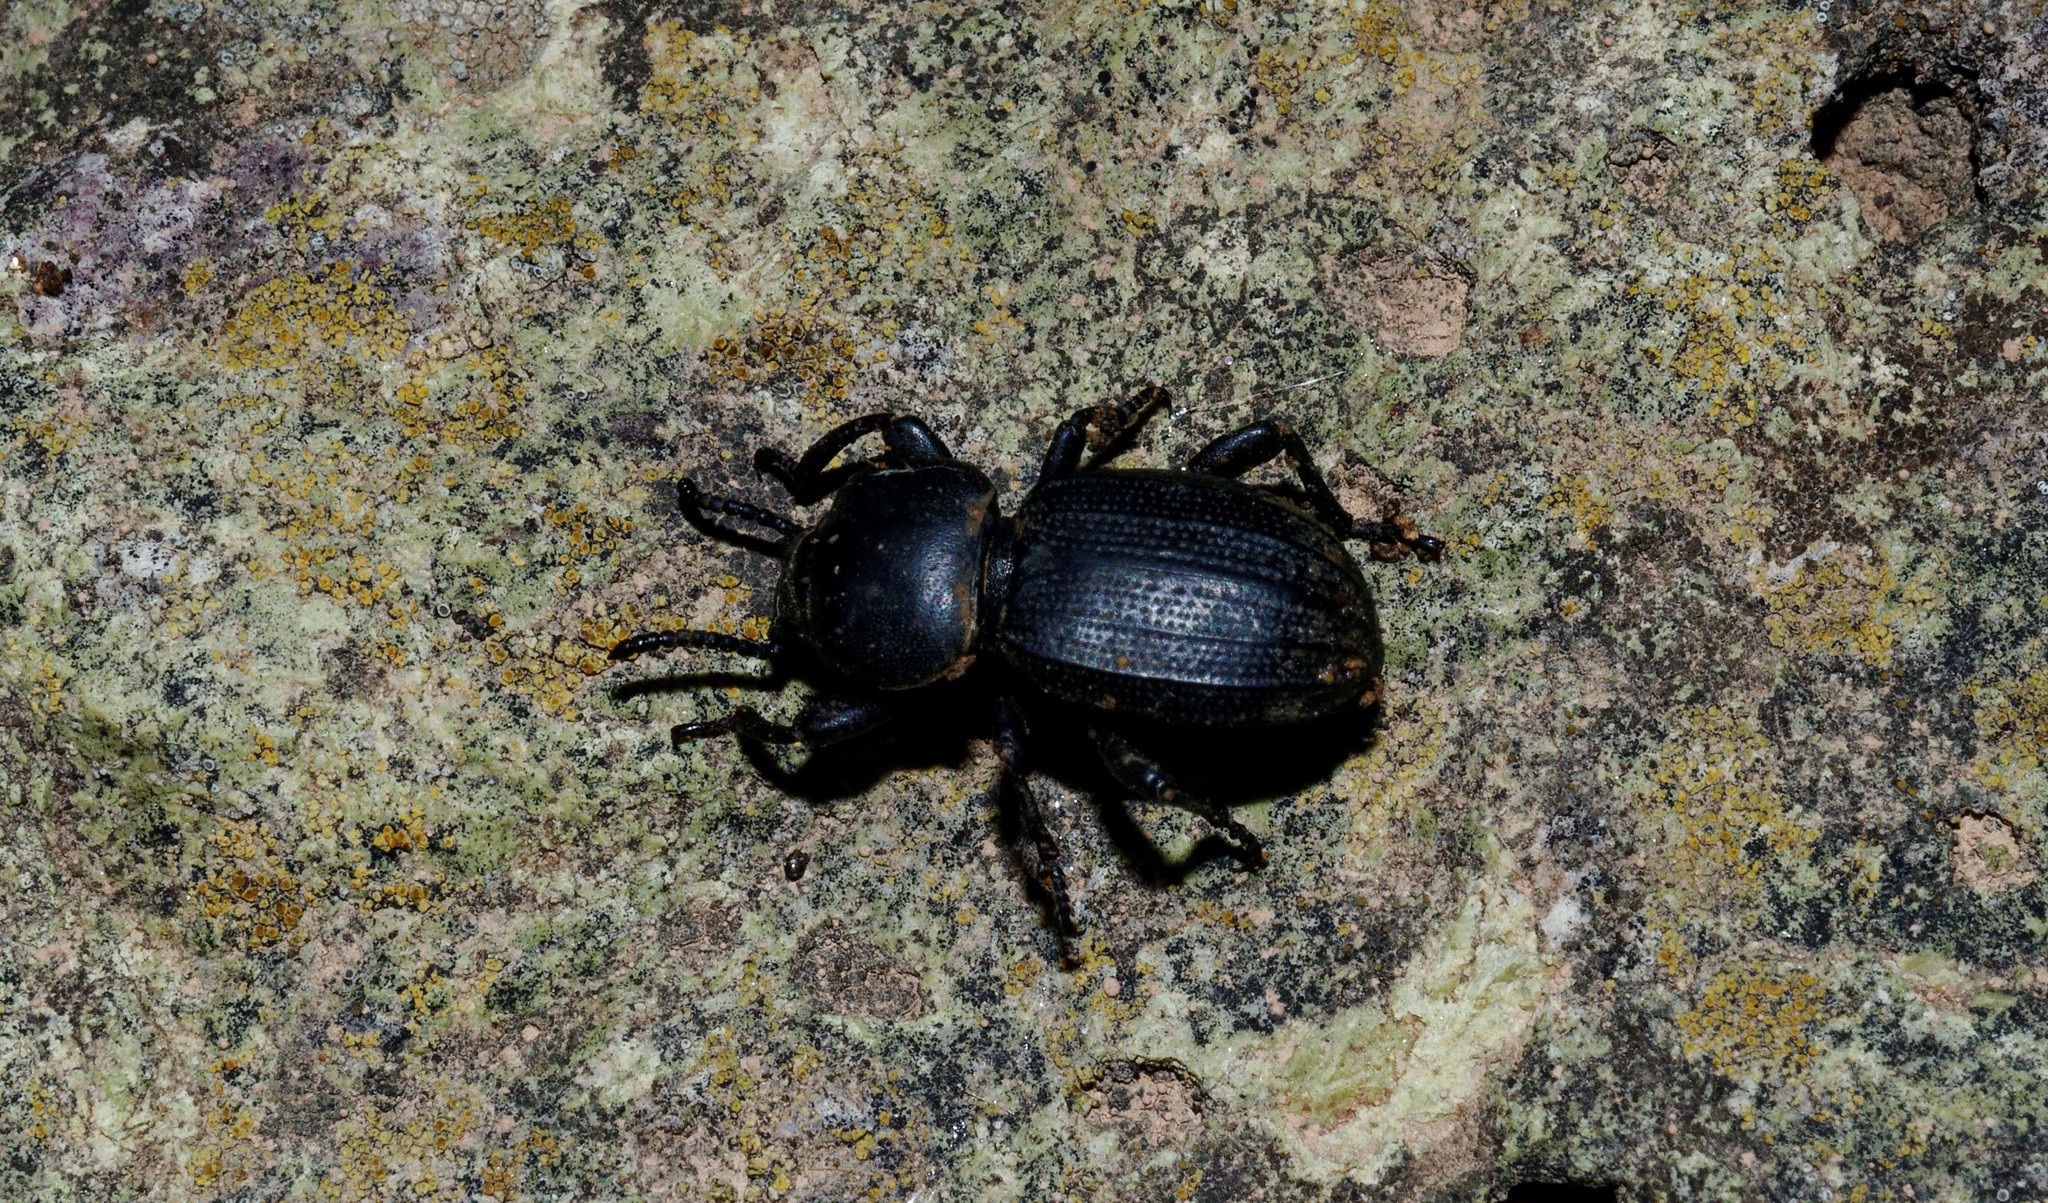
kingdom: Animalia
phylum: Arthropoda
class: Insecta
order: Coleoptera
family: Tenebrionidae
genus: Scaurus
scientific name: Scaurus uncinus
